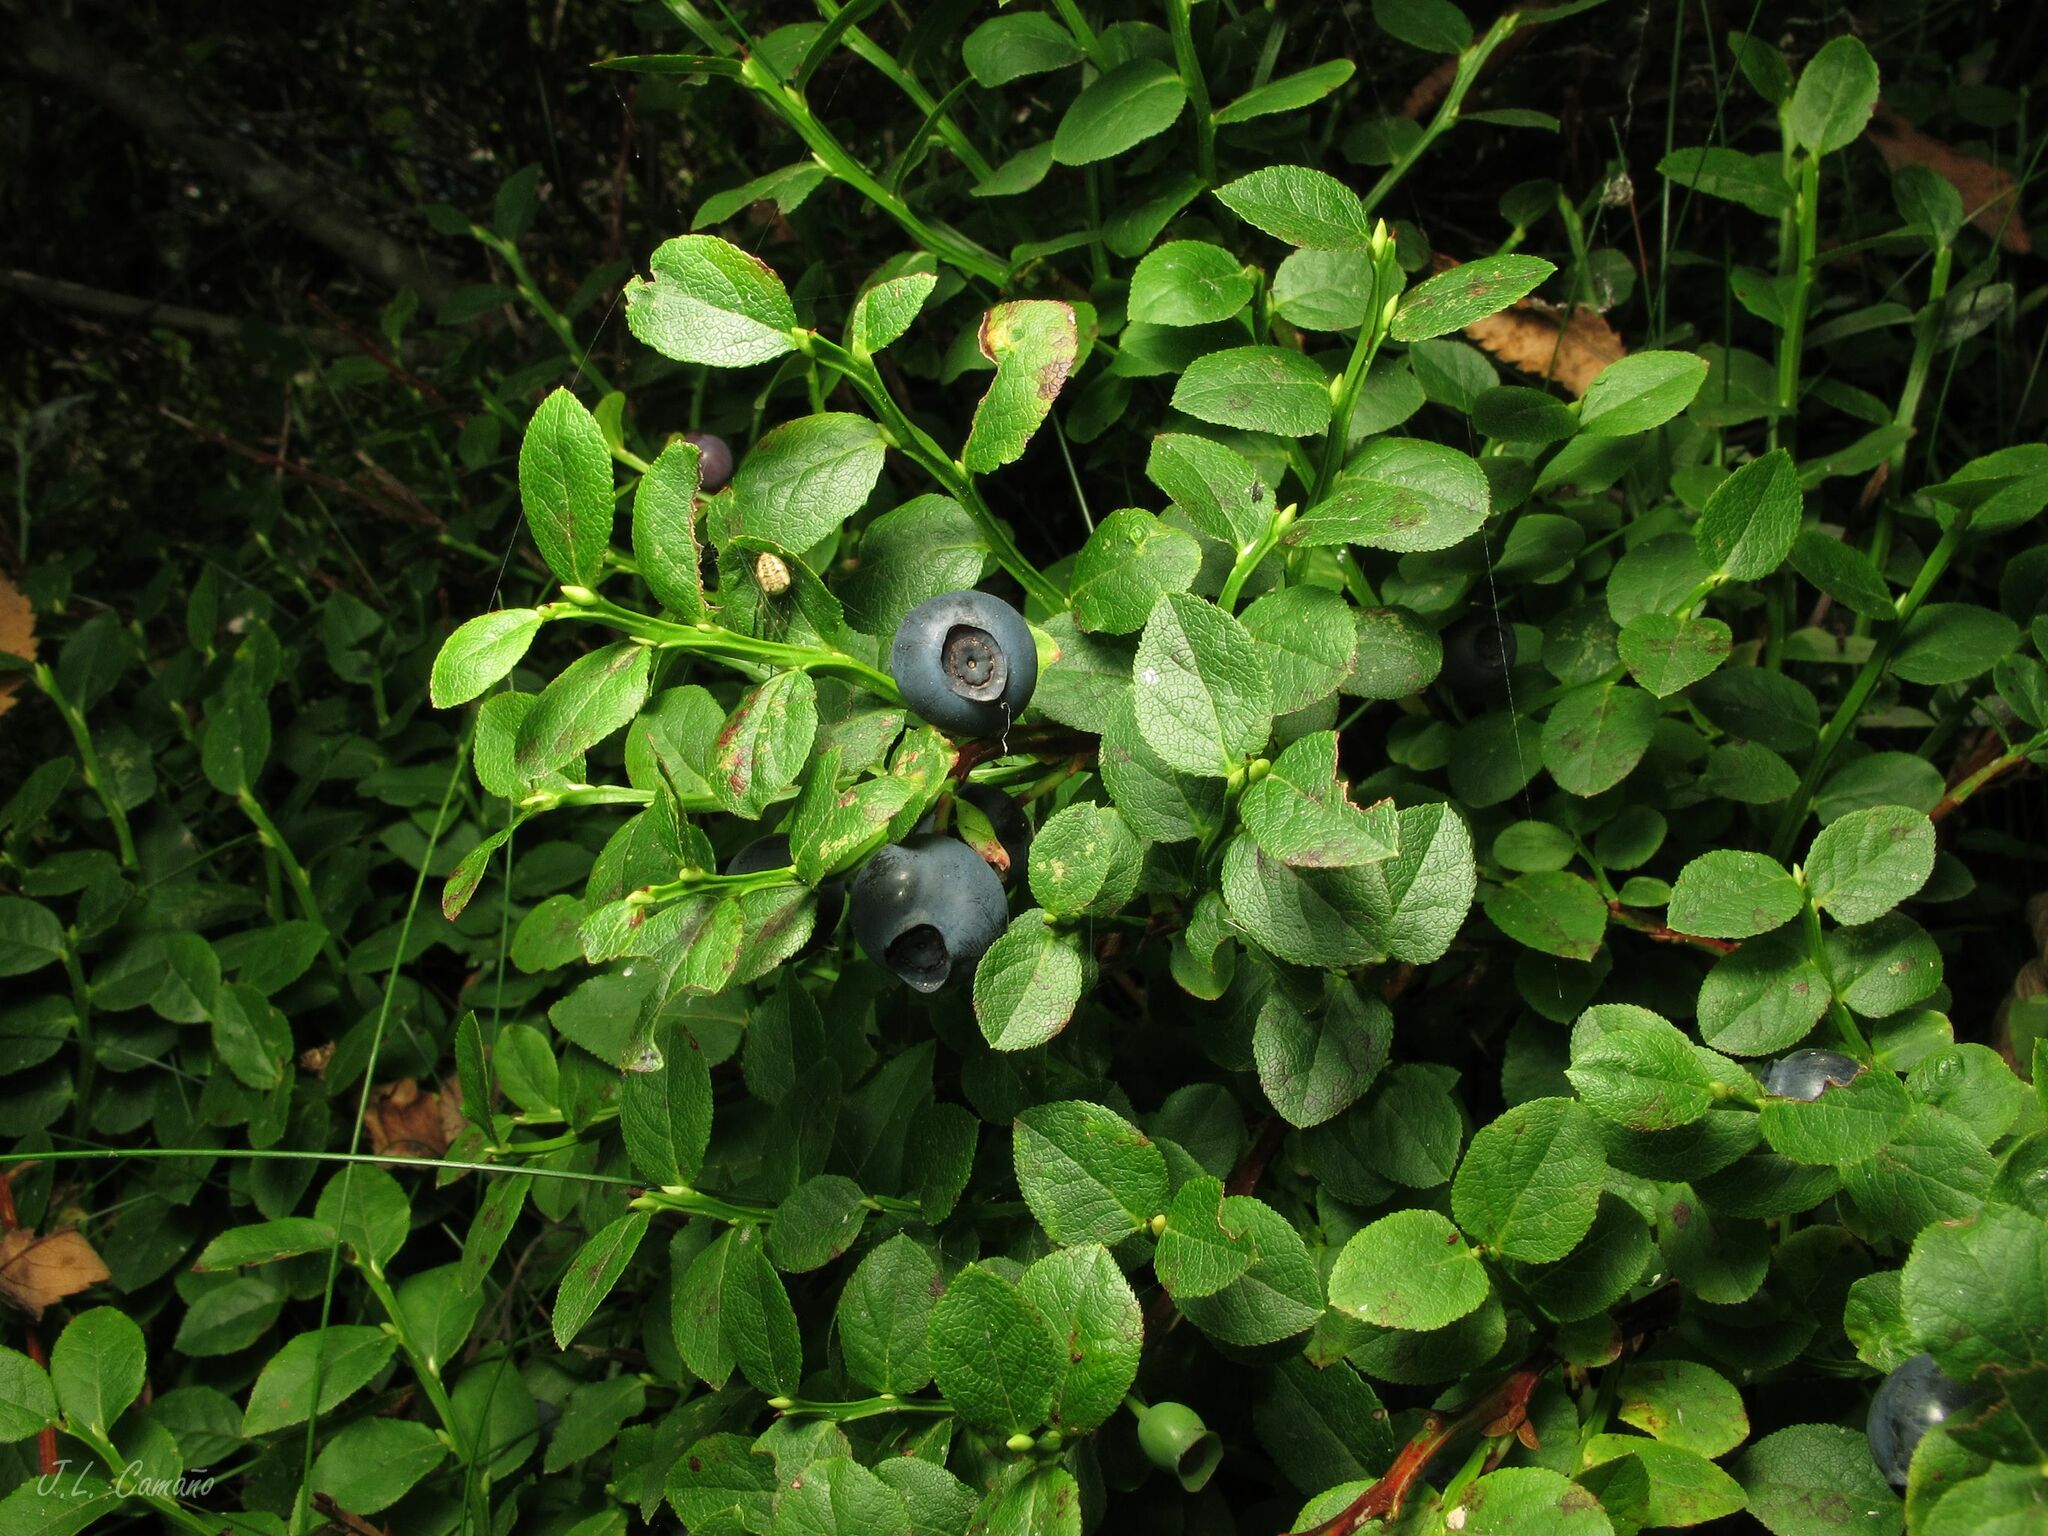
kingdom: Plantae
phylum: Tracheophyta
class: Magnoliopsida
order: Ericales
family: Ericaceae
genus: Vaccinium
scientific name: Vaccinium myrtillus
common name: Bilberry
